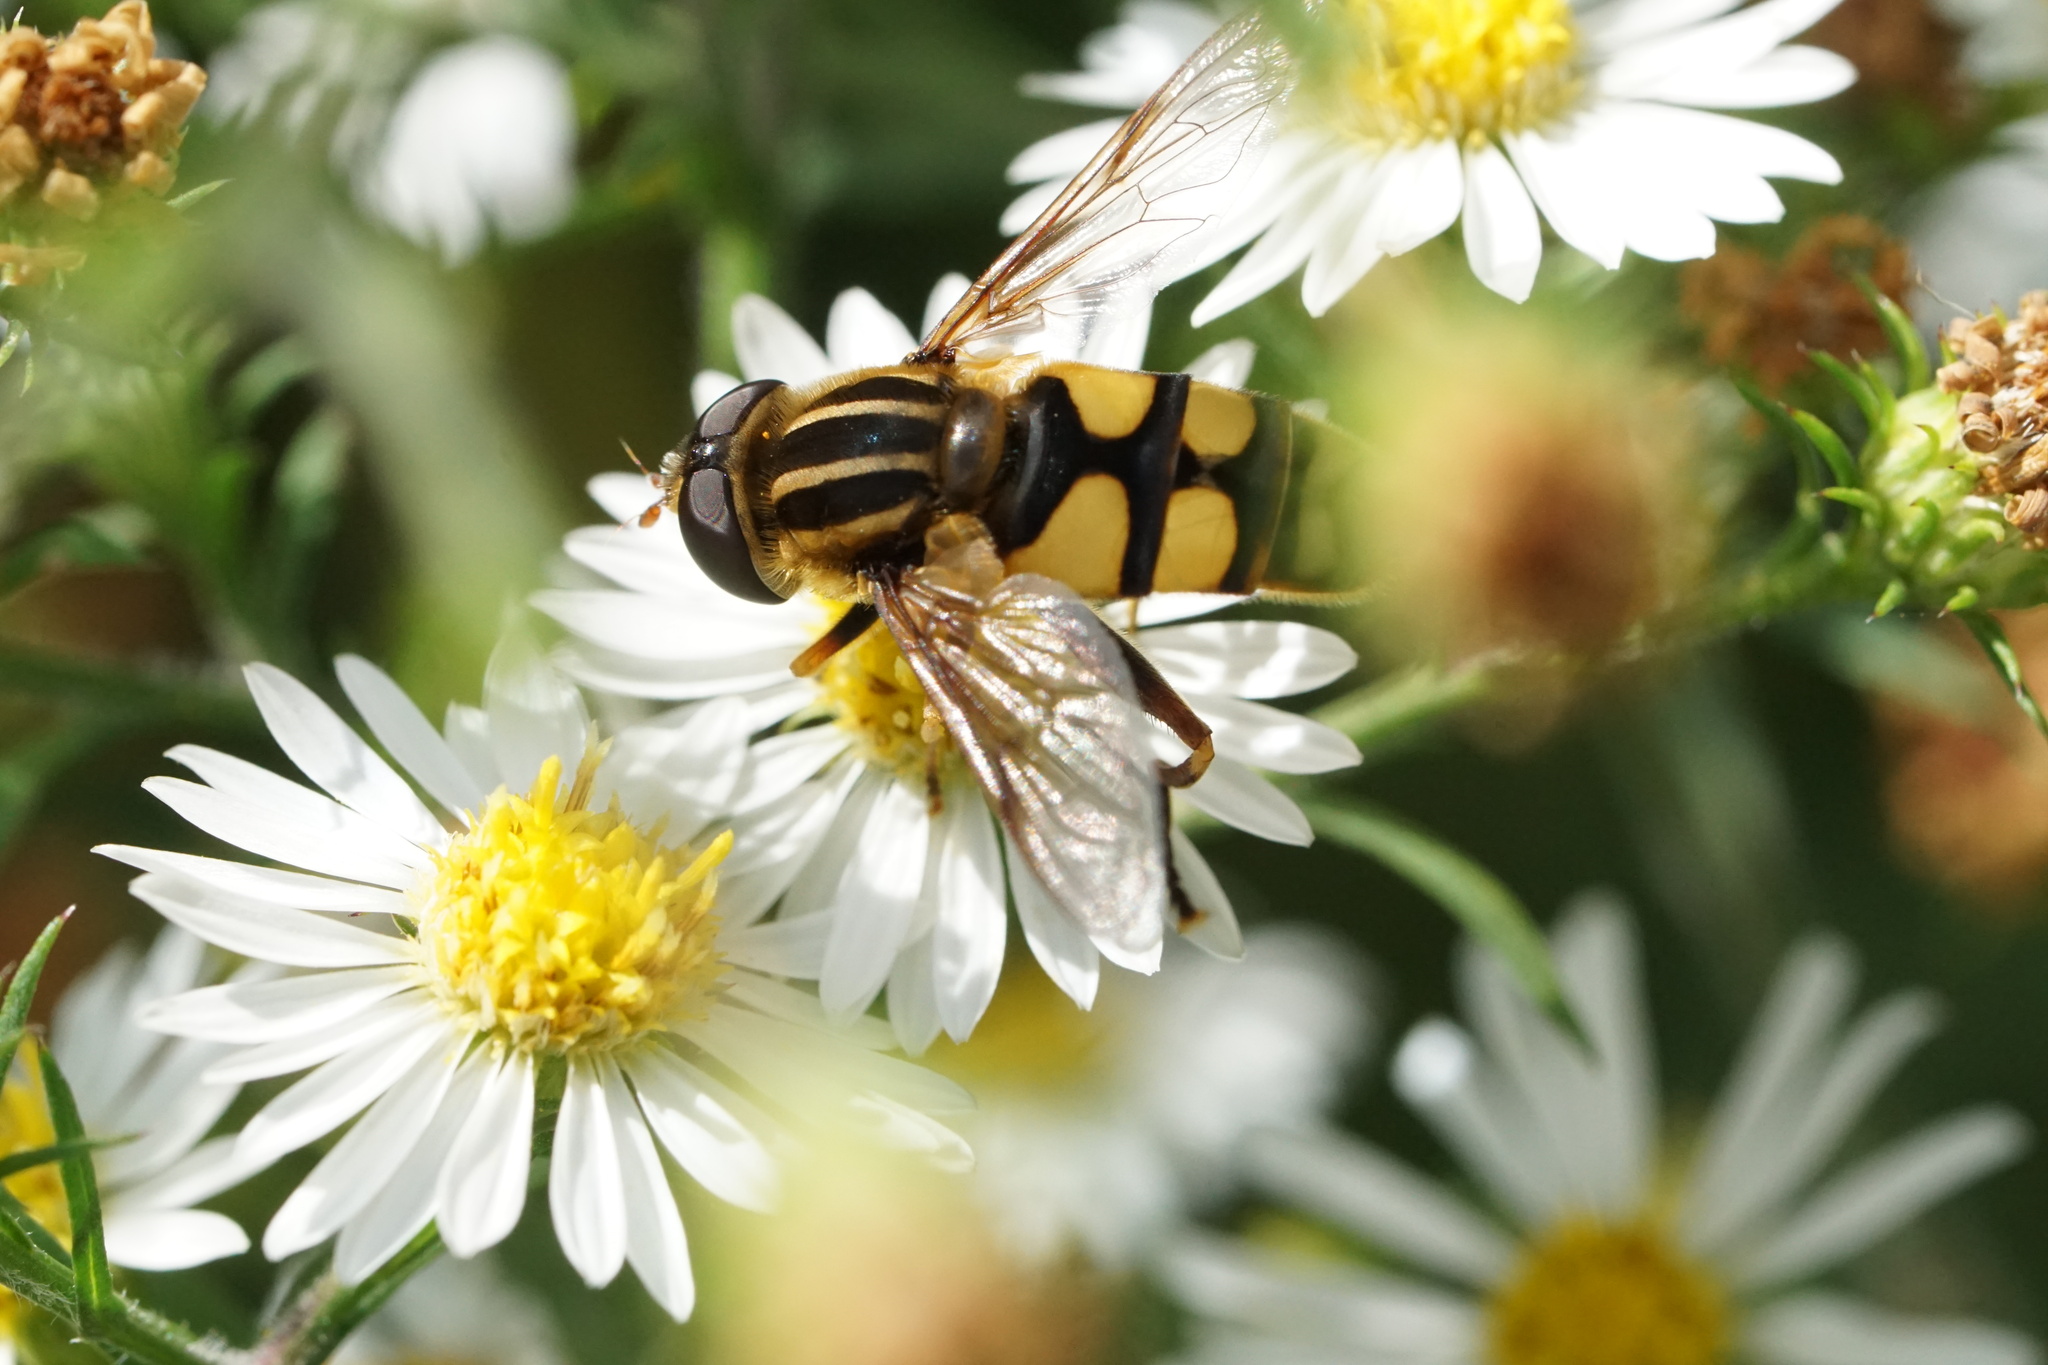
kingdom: Animalia
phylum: Arthropoda
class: Insecta
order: Diptera
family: Syrphidae
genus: Helophilus
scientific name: Helophilus fasciatus
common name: Narrow-headed marsh fly
